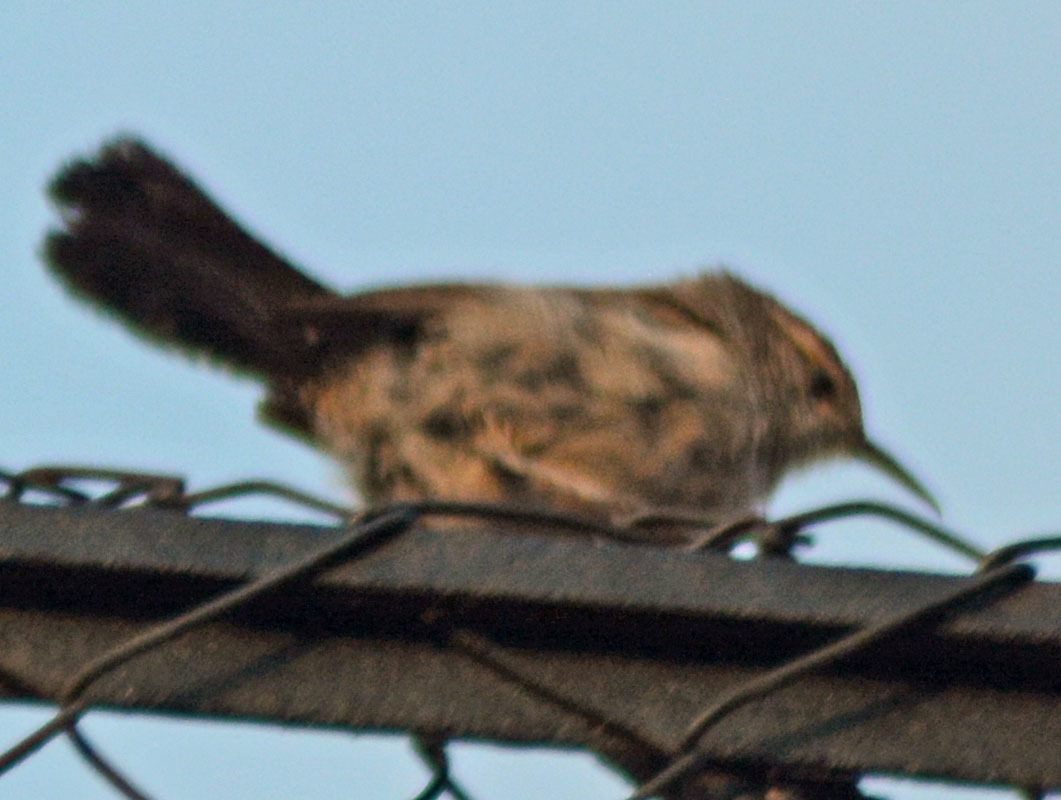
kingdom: Animalia
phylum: Chordata
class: Aves
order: Passeriformes
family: Troglodytidae
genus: Thryomanes
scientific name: Thryomanes bewickii
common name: Bewick's wren
